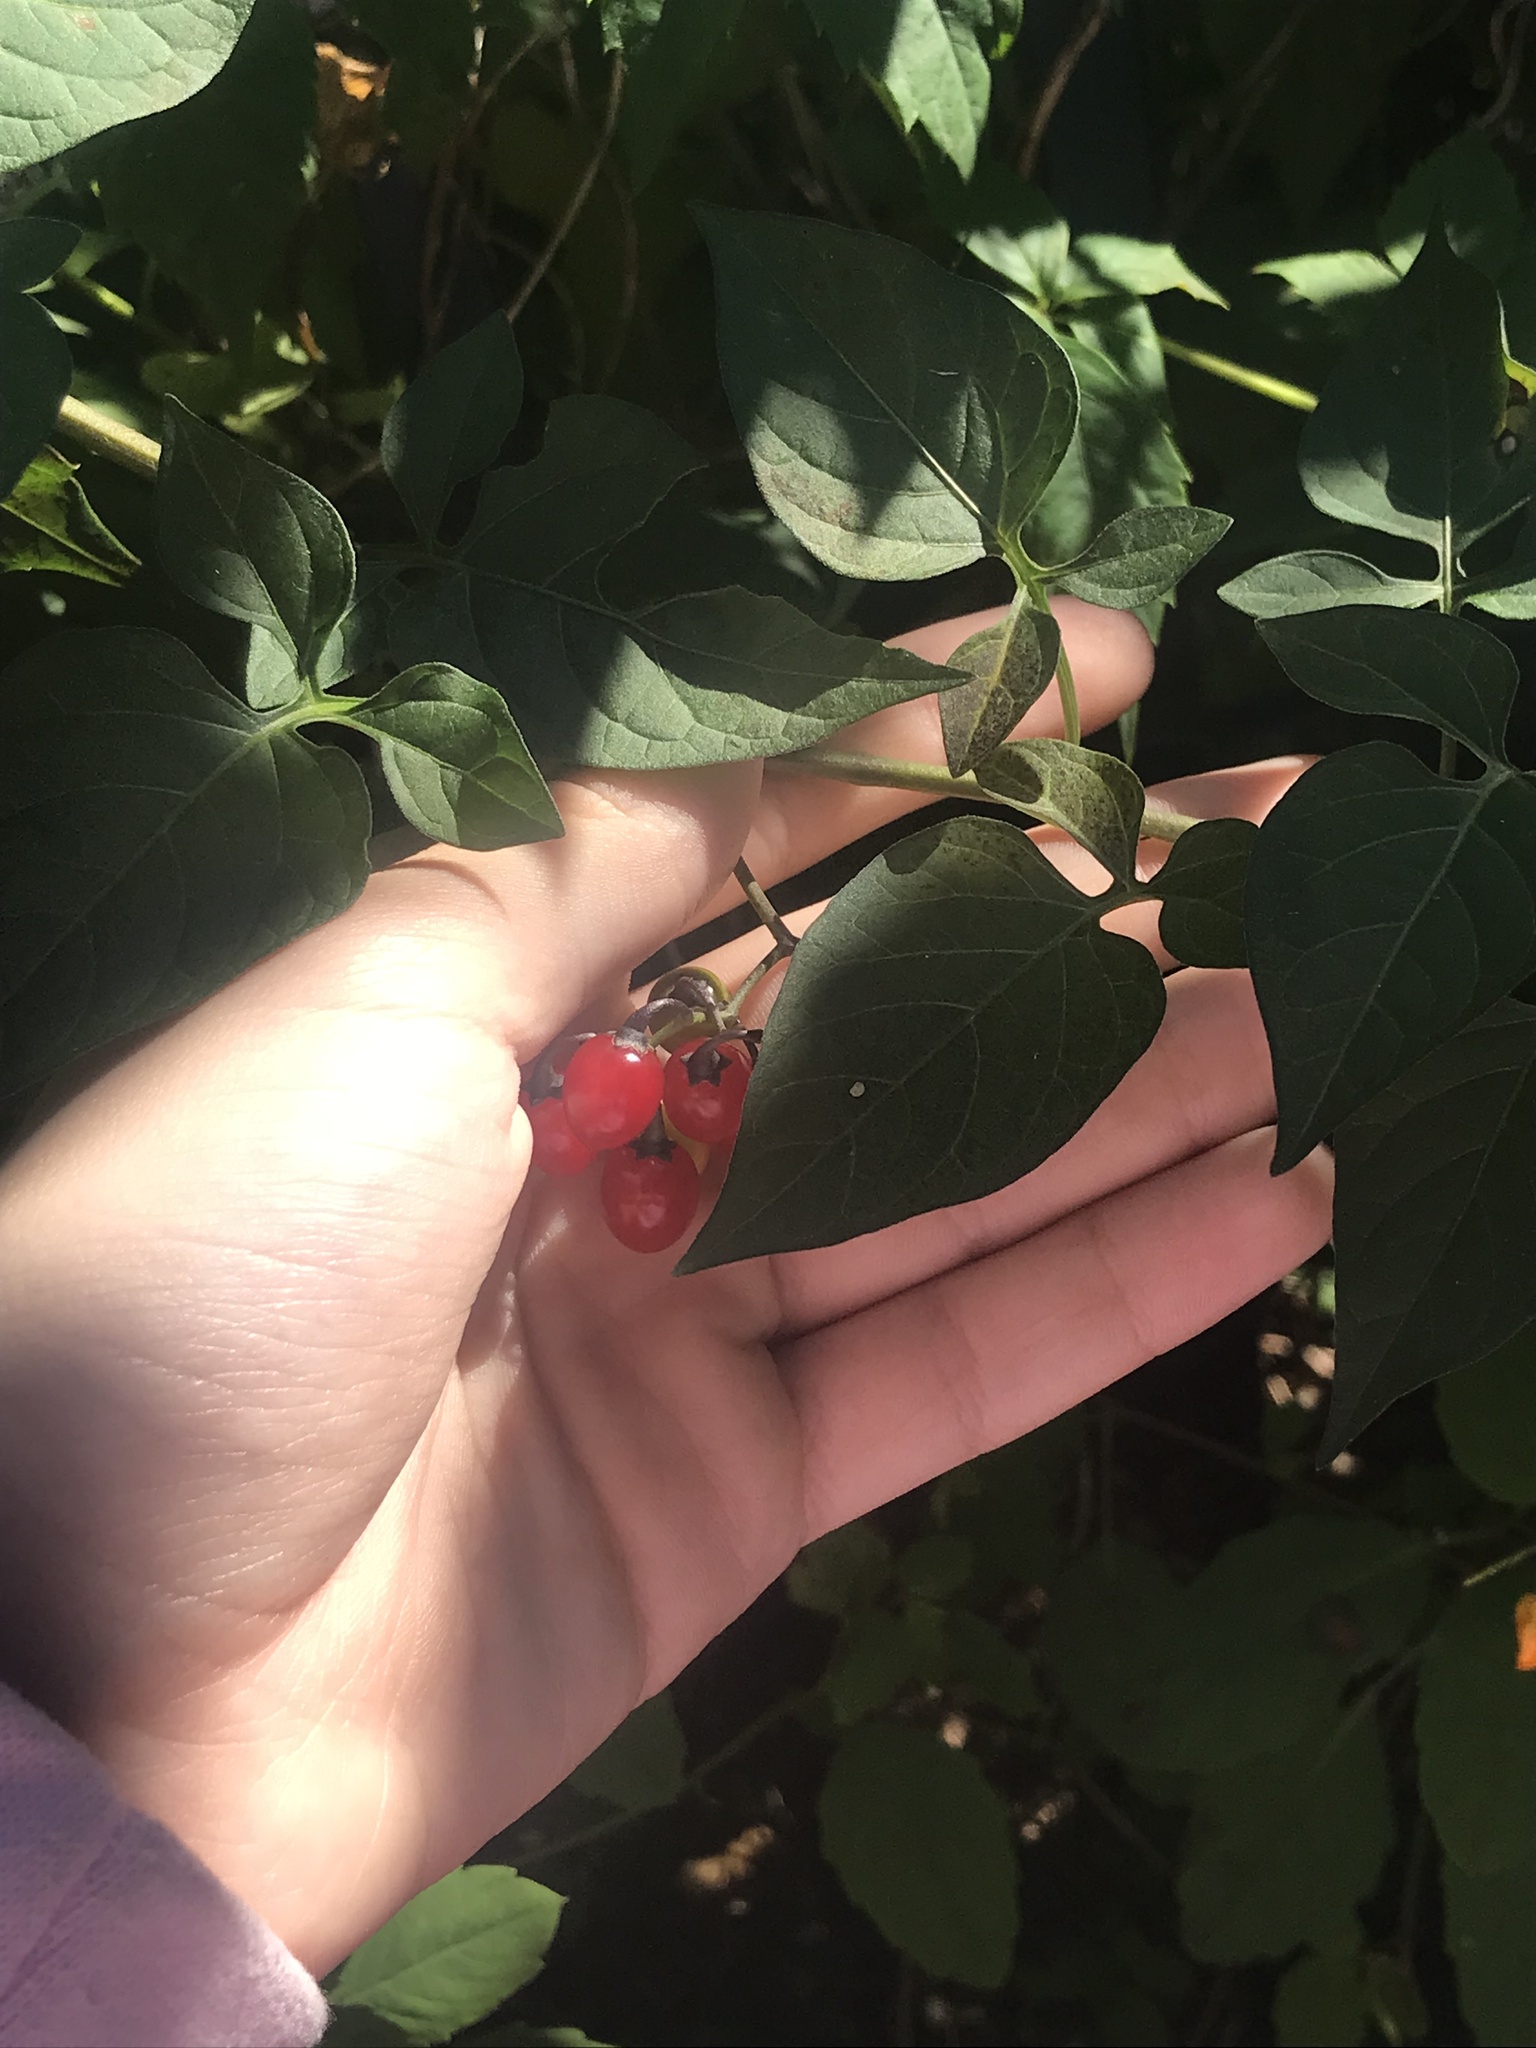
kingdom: Plantae
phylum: Tracheophyta
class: Magnoliopsida
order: Solanales
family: Solanaceae
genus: Solanum
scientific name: Solanum dulcamara
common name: Climbing nightshade
